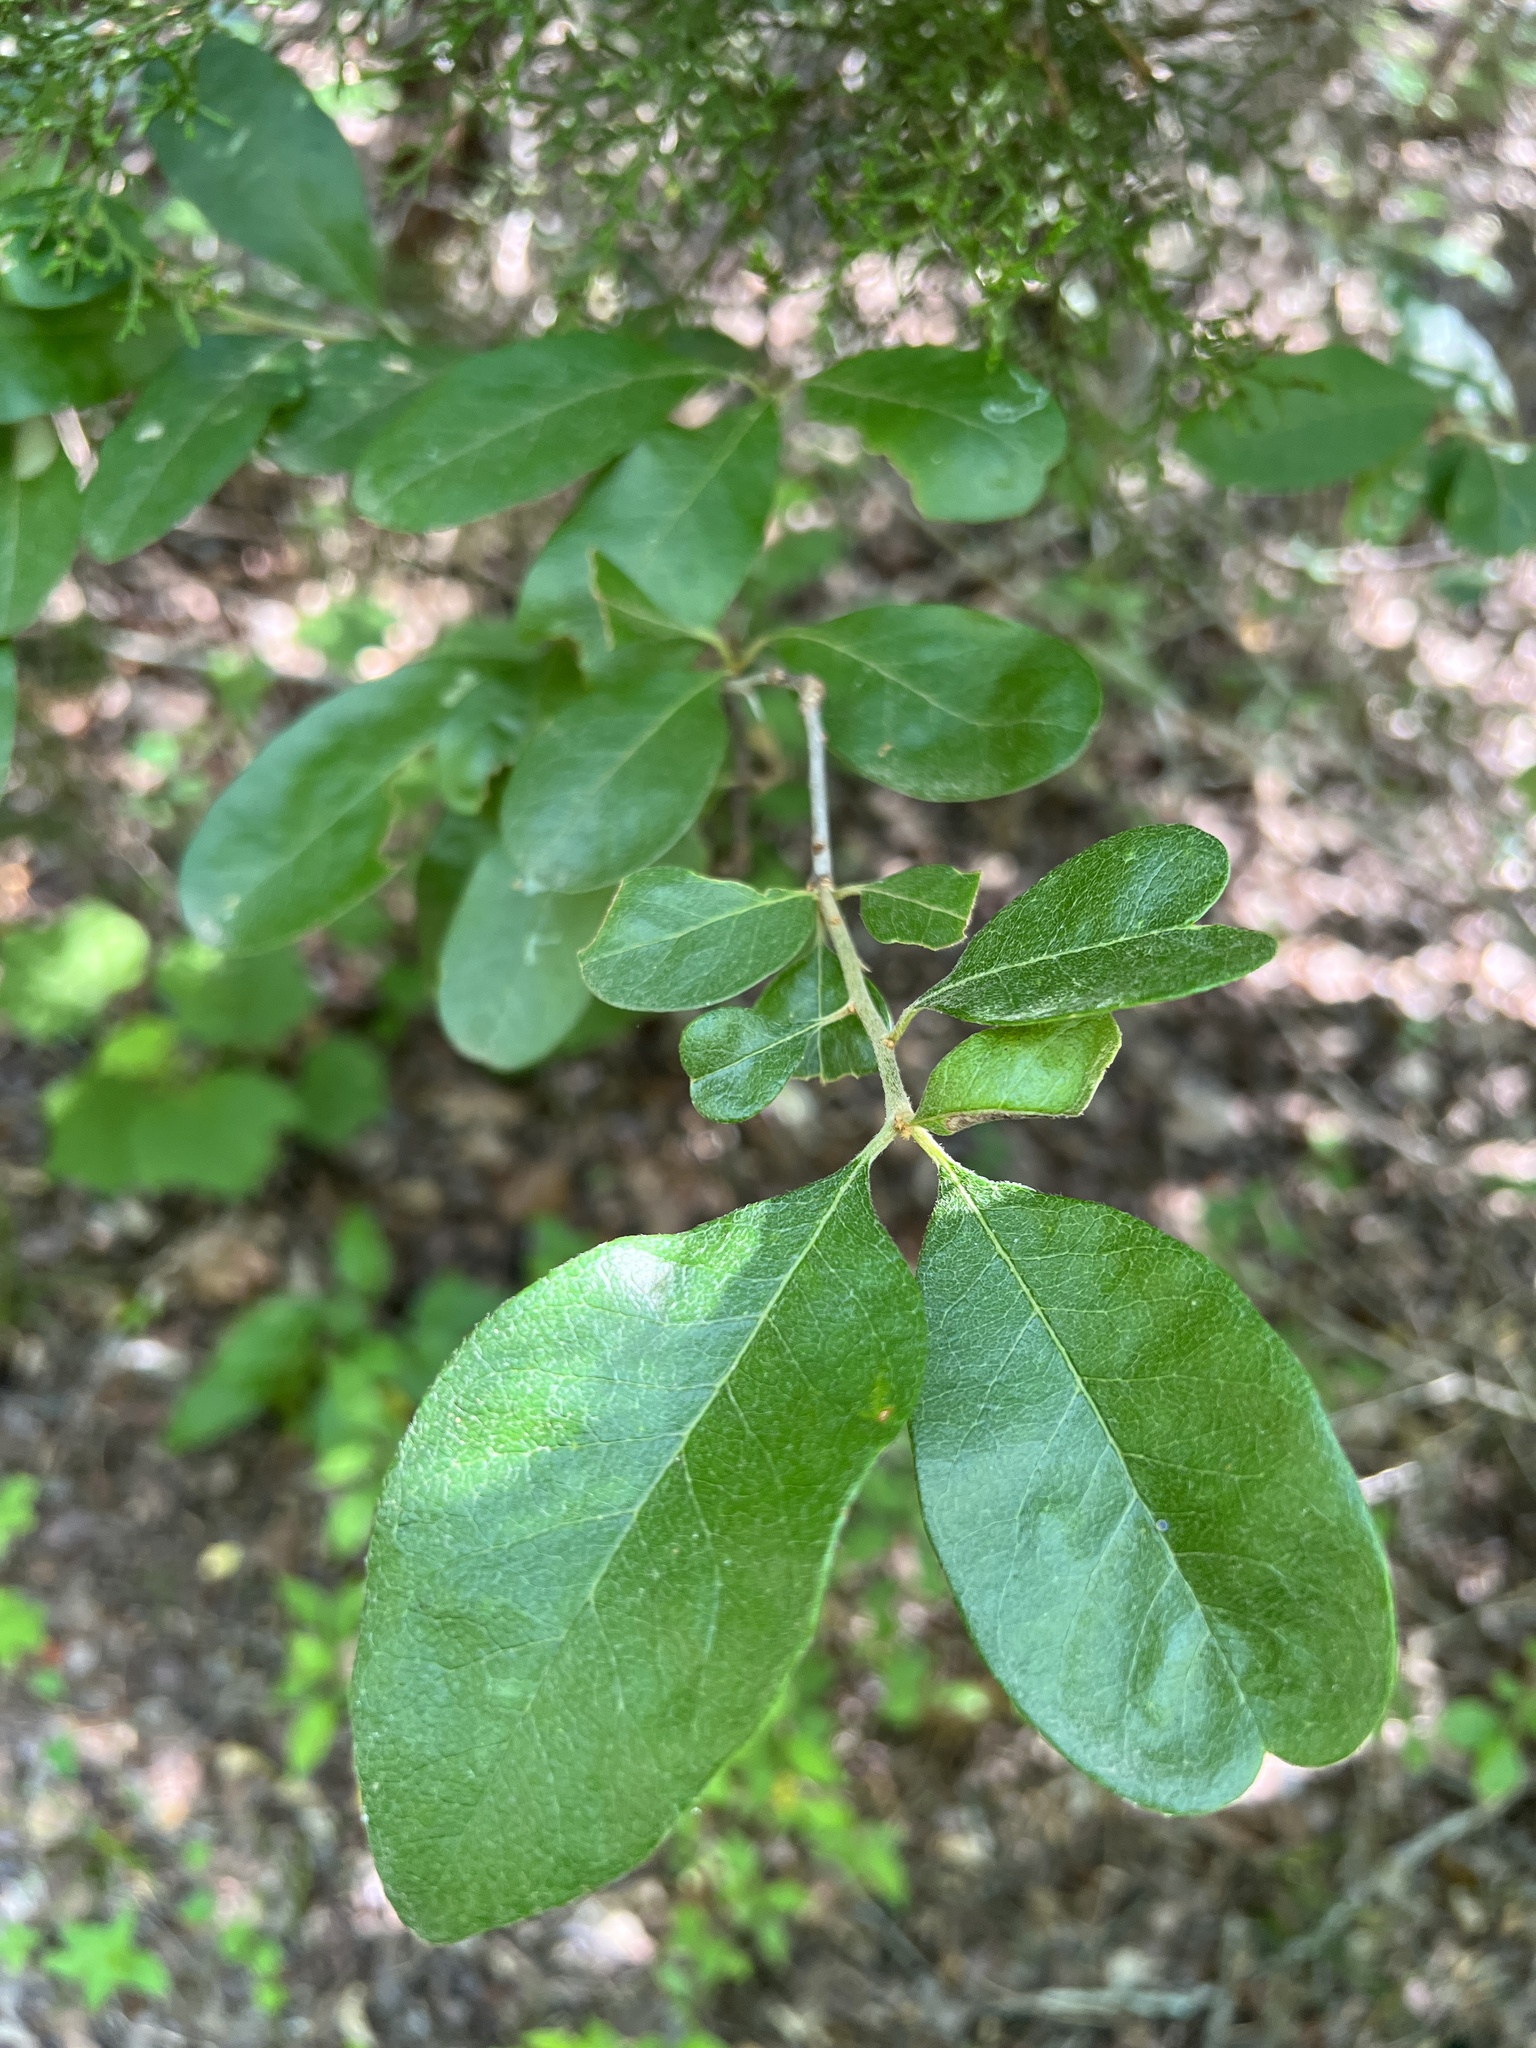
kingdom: Plantae
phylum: Tracheophyta
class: Magnoliopsida
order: Ericales
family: Sapotaceae
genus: Sideroxylon
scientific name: Sideroxylon lanuginosum
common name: Chittamwood
